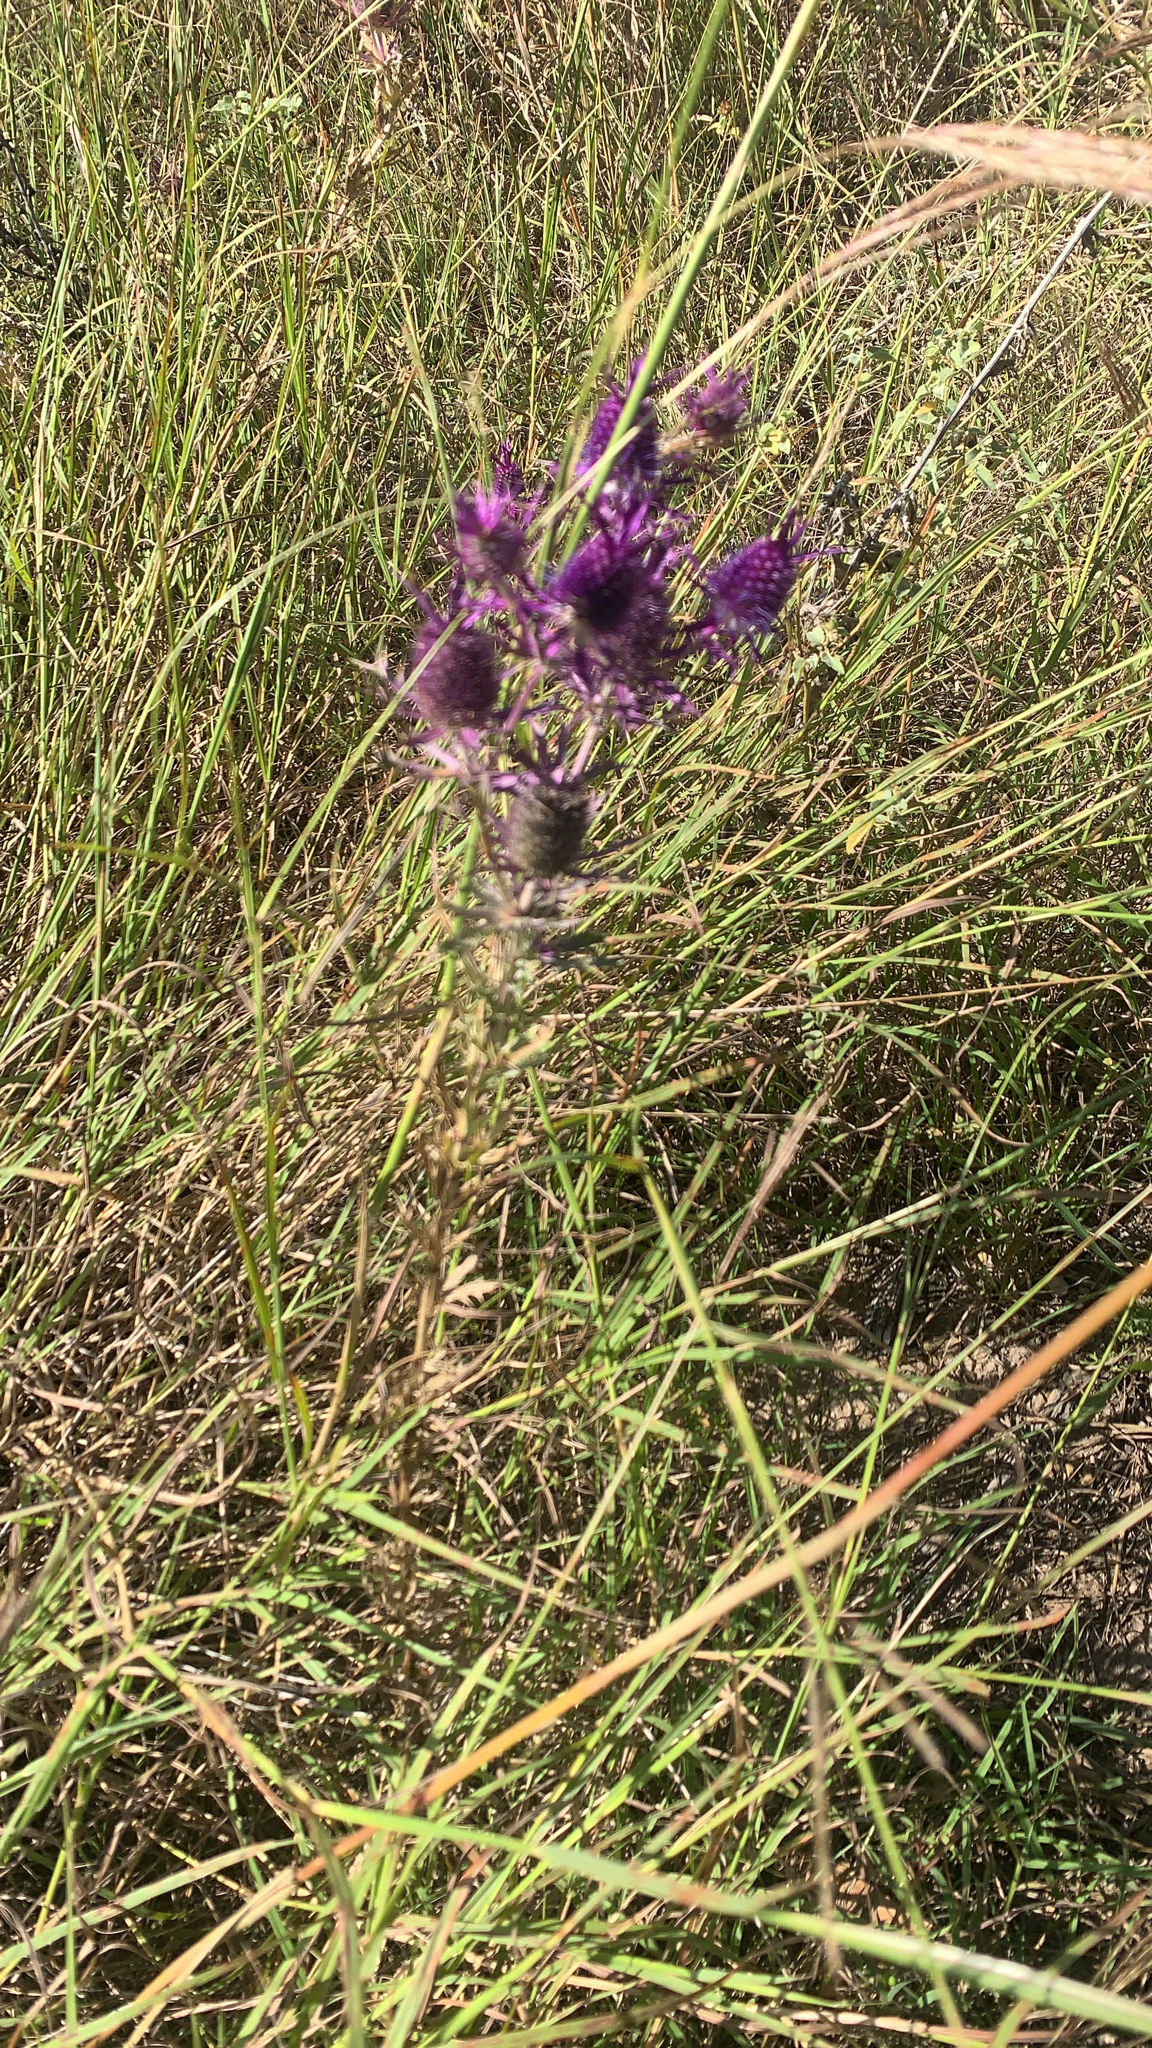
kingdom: Plantae
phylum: Tracheophyta
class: Magnoliopsida
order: Apiales
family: Apiaceae
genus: Eryngium
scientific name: Eryngium leavenworthii
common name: Leavenworth's eryngo
